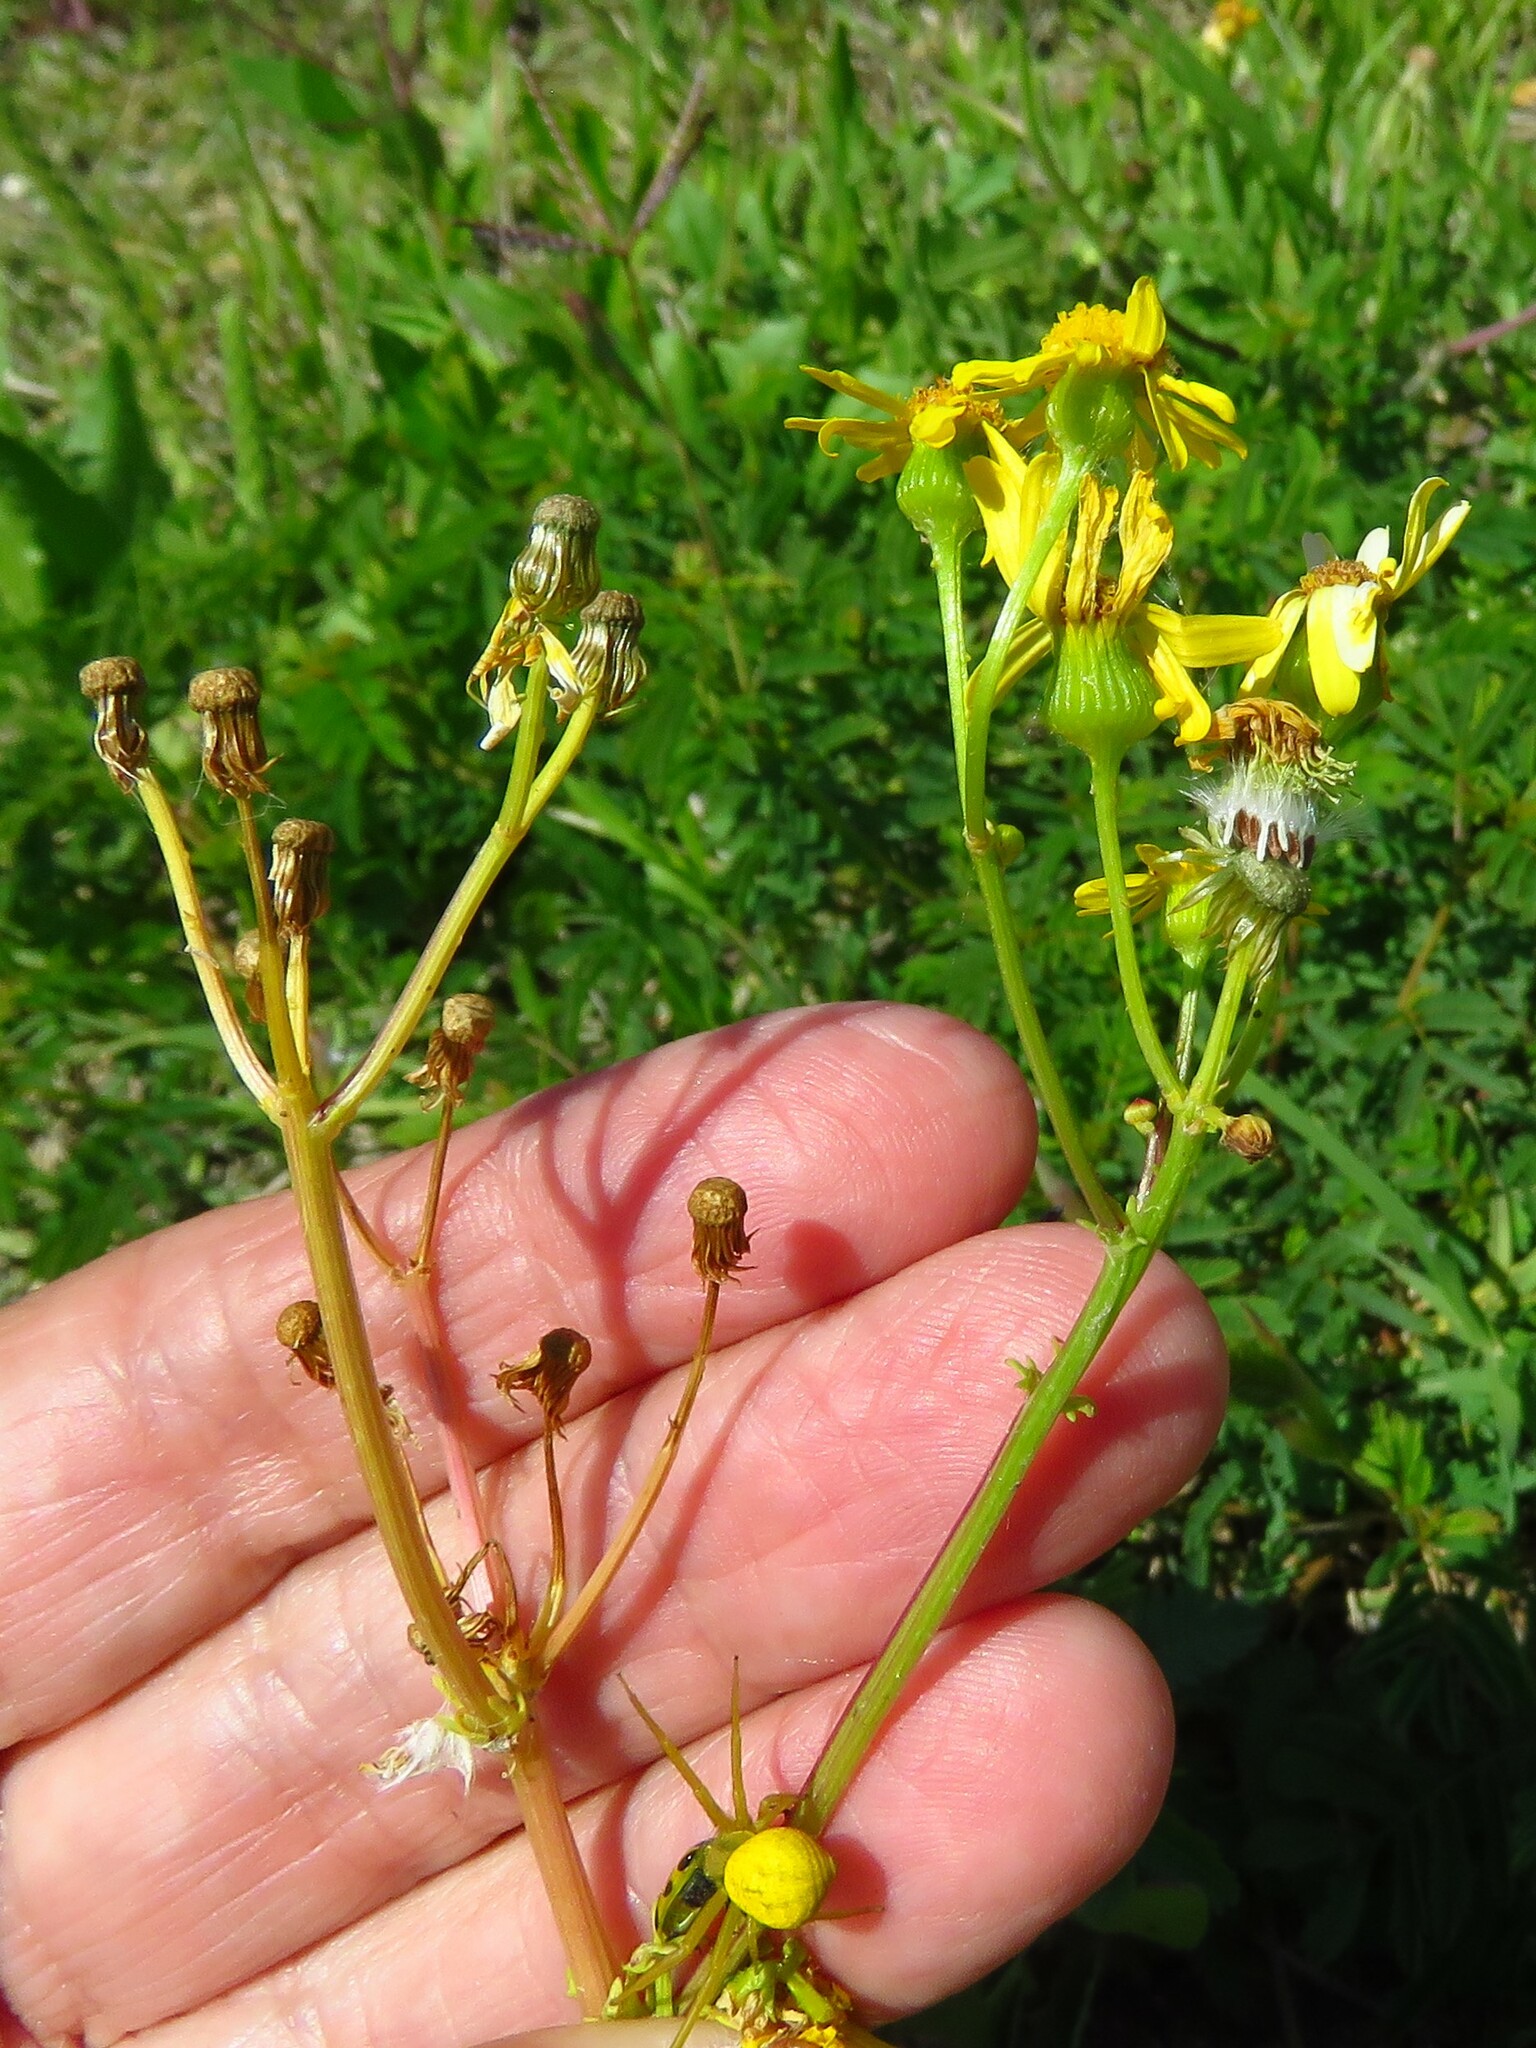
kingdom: Plantae
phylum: Tracheophyta
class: Magnoliopsida
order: Asterales
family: Asteraceae
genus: Packera
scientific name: Packera tampicana
